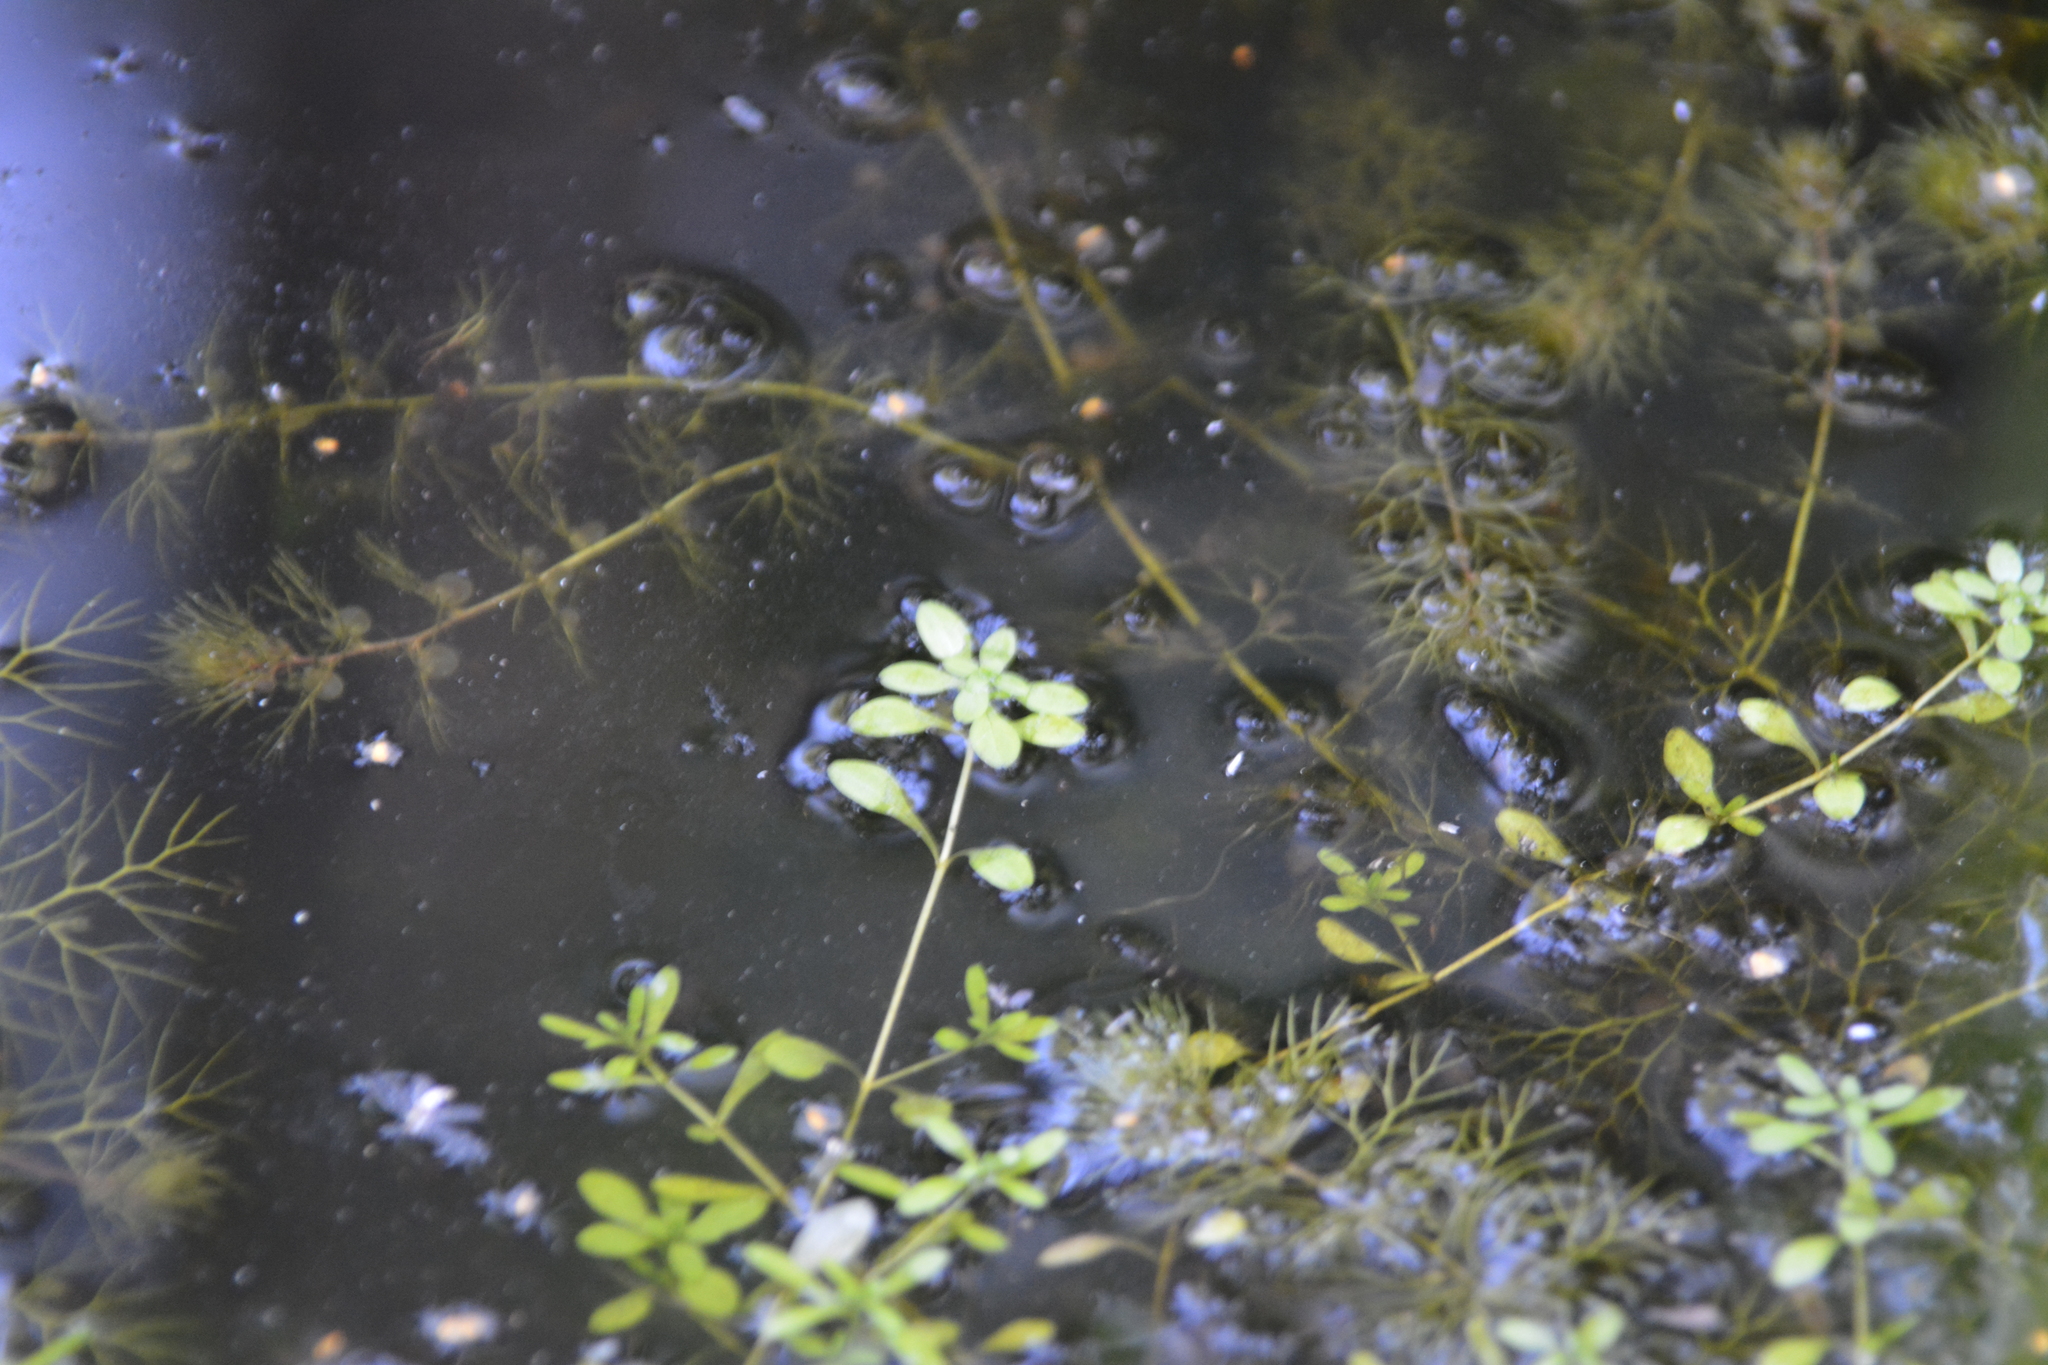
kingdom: Plantae
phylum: Tracheophyta
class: Magnoliopsida
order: Lamiales
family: Plantaginaceae
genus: Callitriche
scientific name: Callitriche cophocarpa
